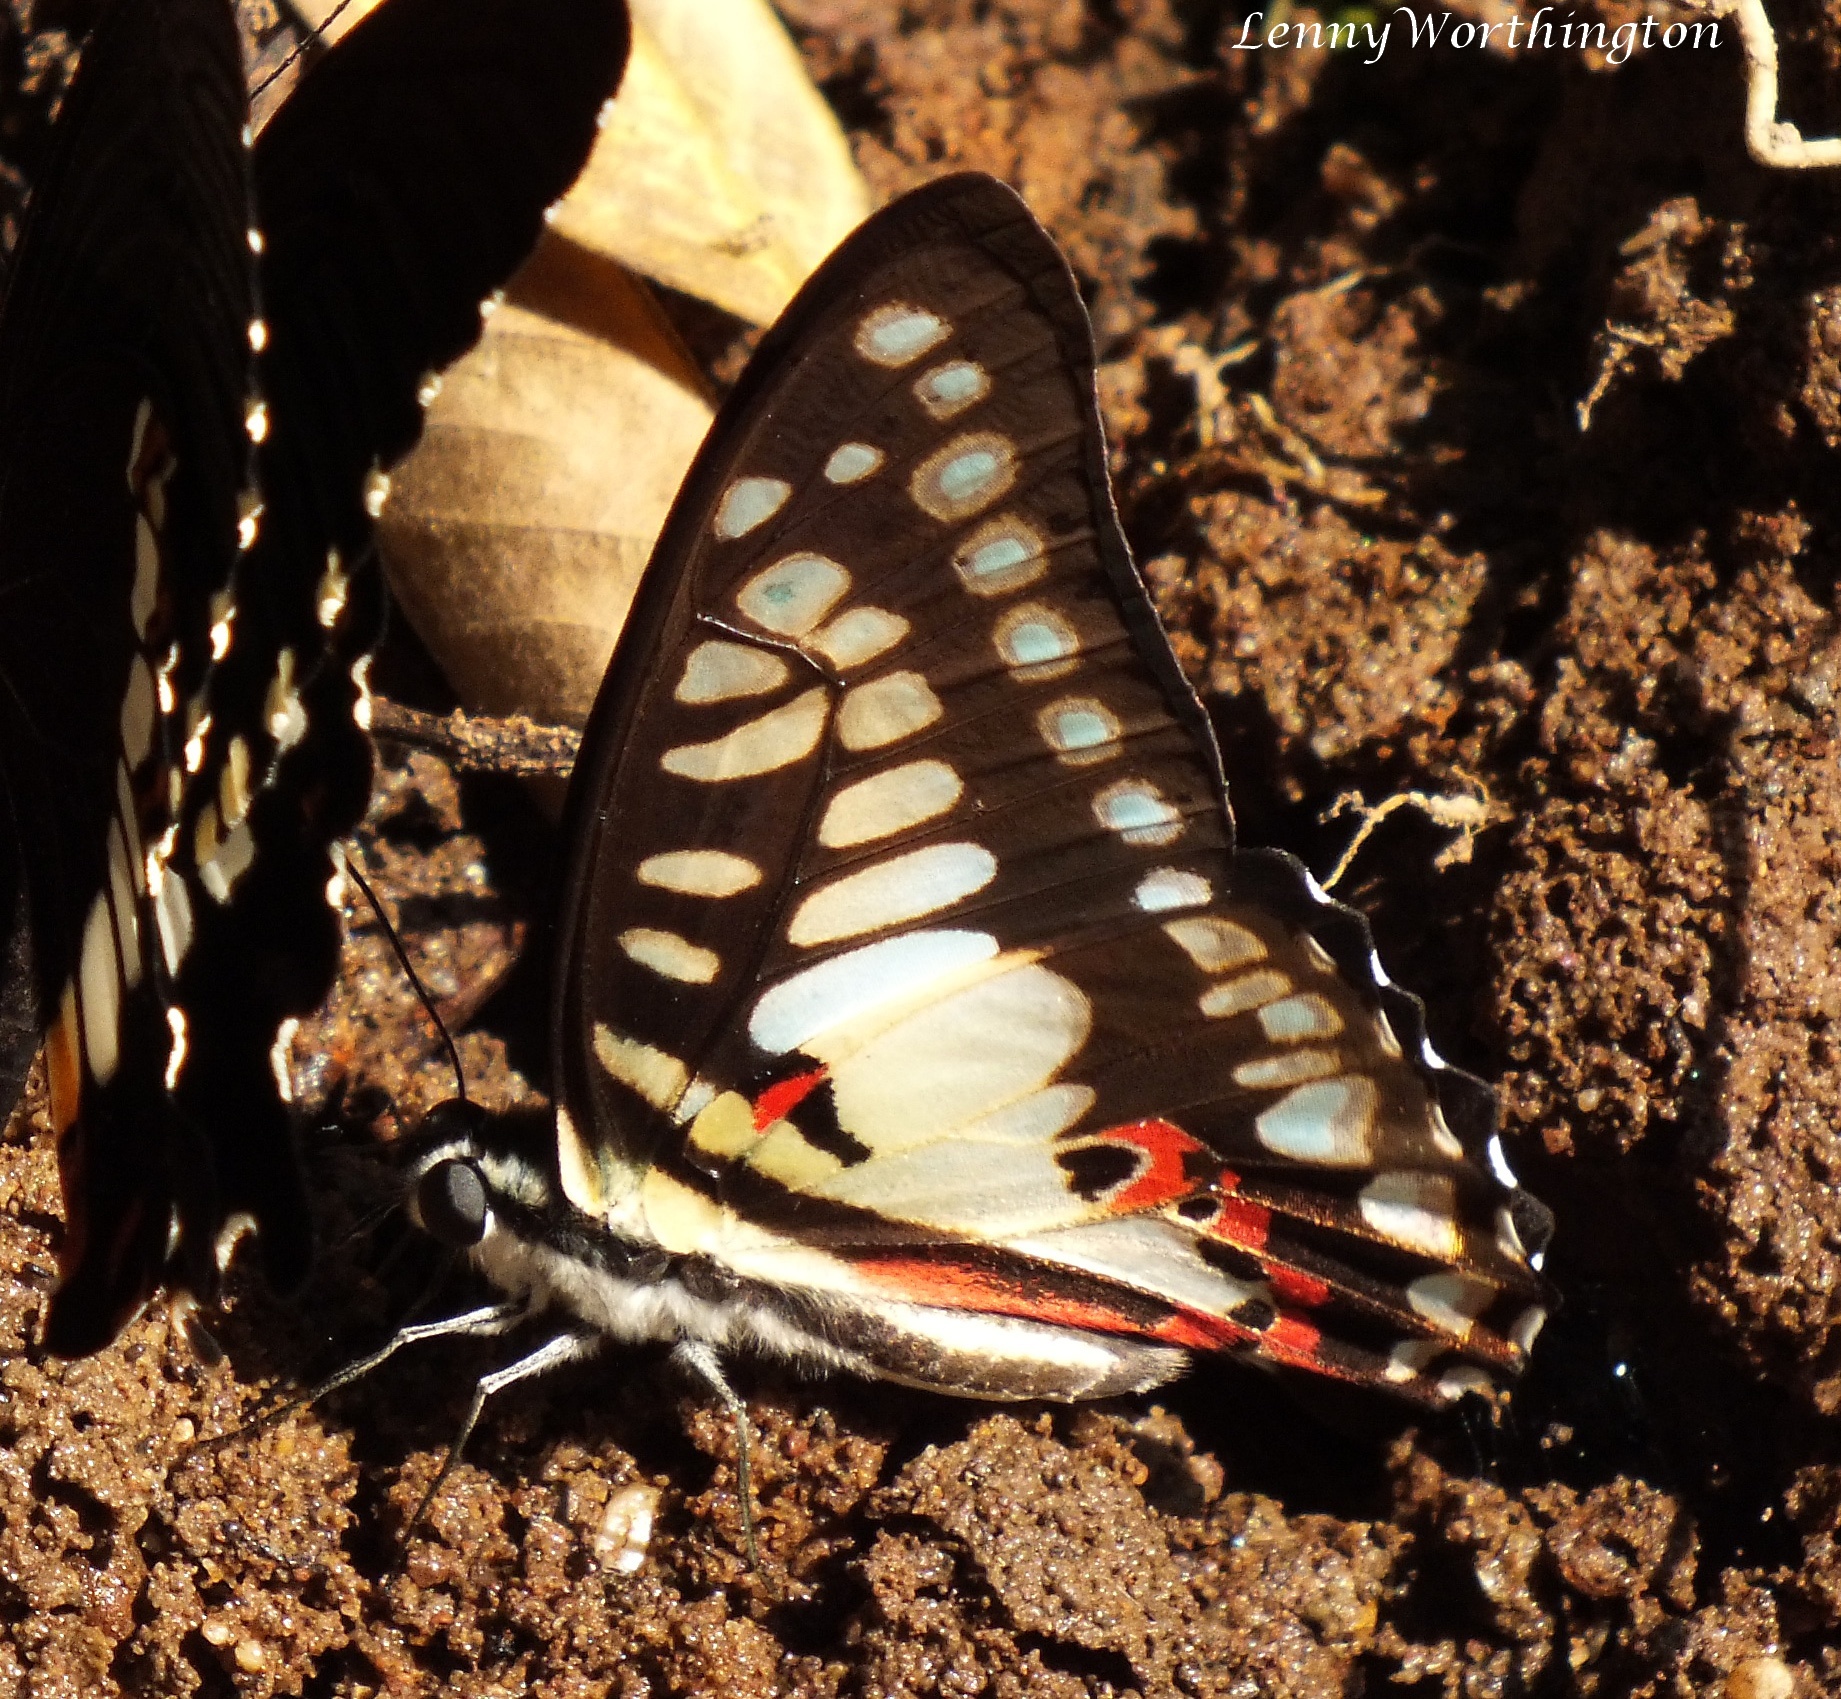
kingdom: Animalia
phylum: Arthropoda
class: Insecta
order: Lepidoptera
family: Papilionidae
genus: Graphium
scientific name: Graphium doson
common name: Common jay
